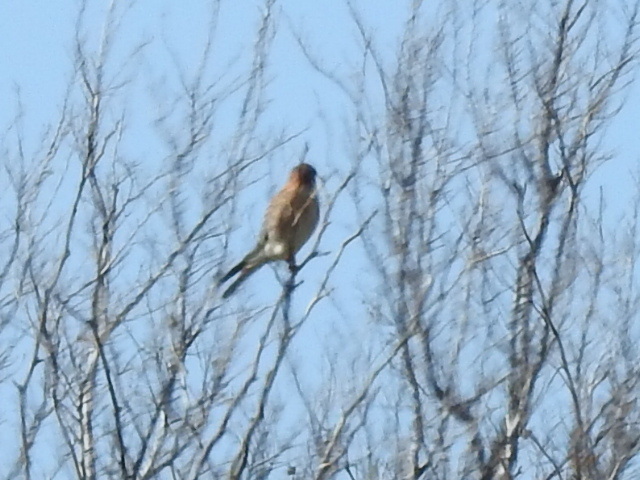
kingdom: Animalia
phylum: Chordata
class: Aves
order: Falconiformes
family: Falconidae
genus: Falco
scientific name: Falco sparverius
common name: American kestrel
